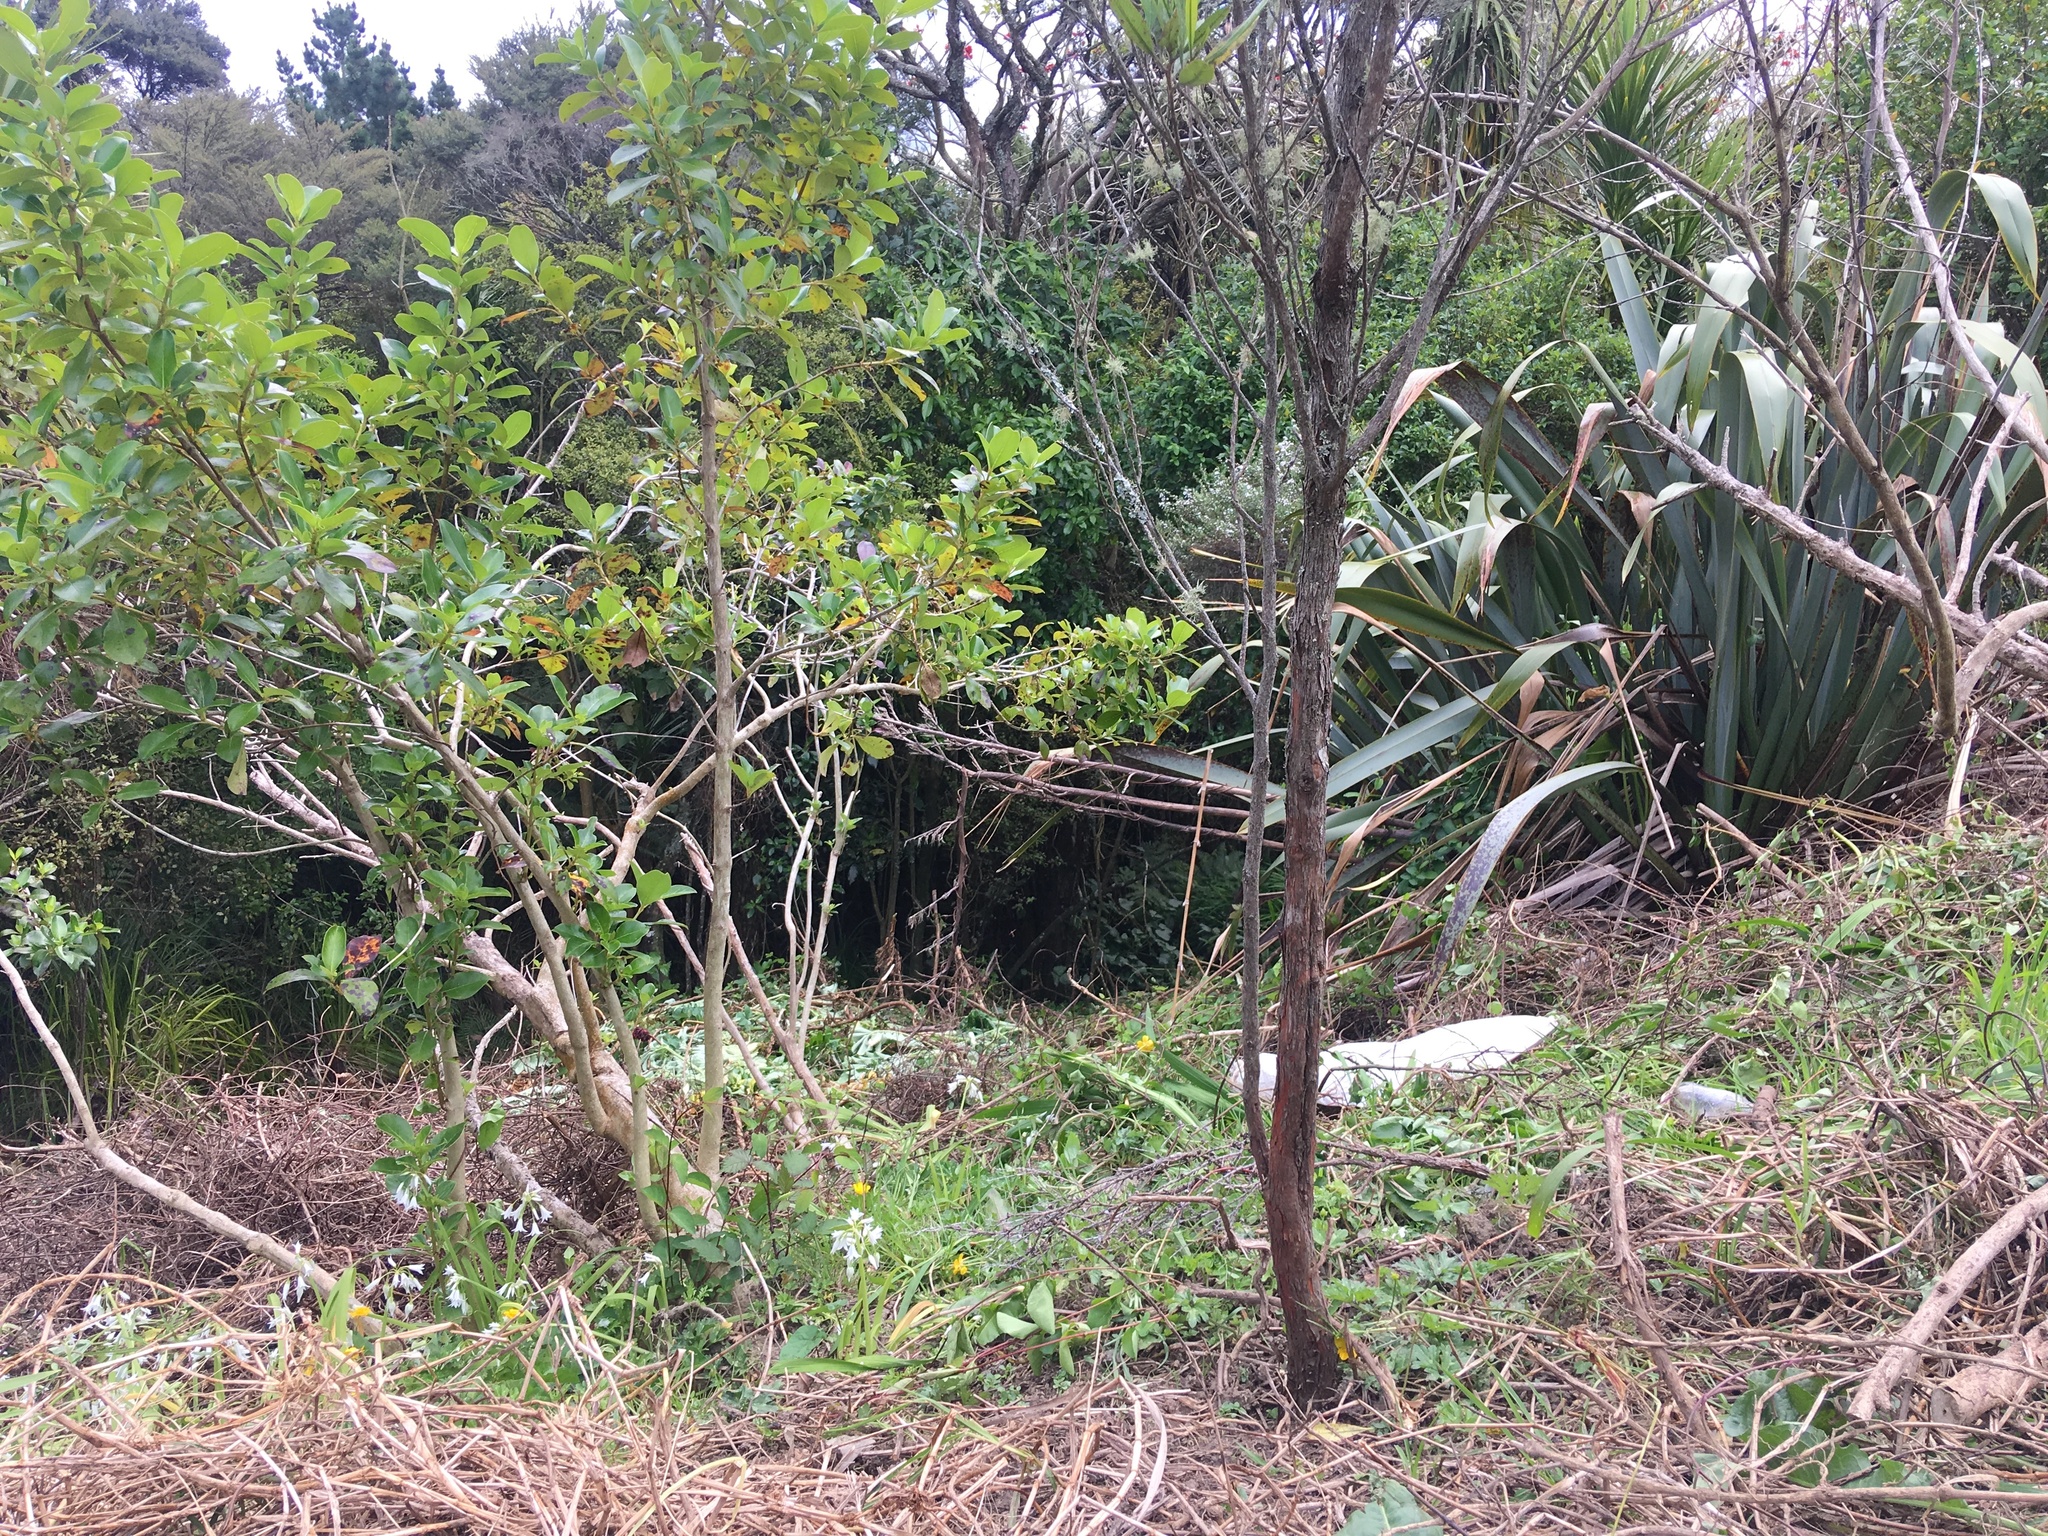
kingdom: Plantae
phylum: Tracheophyta
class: Magnoliopsida
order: Gentianales
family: Rubiaceae
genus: Coprosma
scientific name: Coprosma robusta
